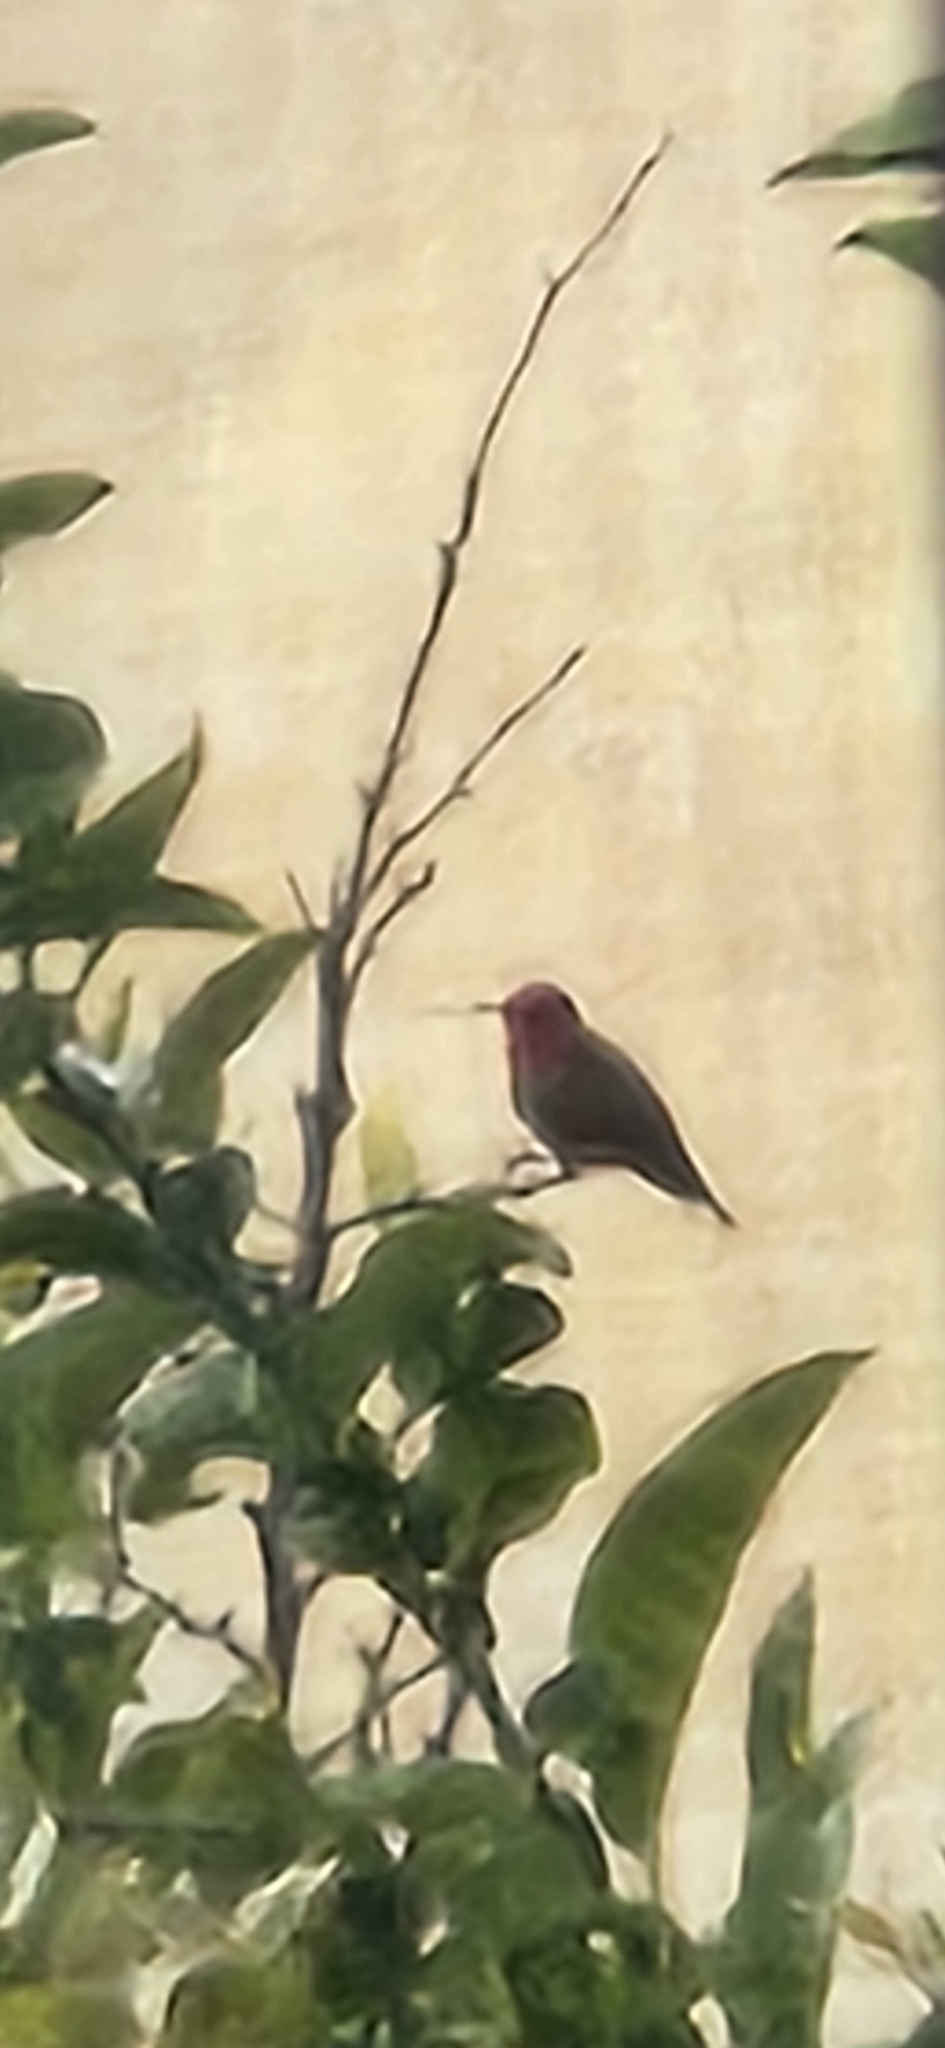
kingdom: Animalia
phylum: Chordata
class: Aves
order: Apodiformes
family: Trochilidae
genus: Calypte
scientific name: Calypte anna
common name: Anna's hummingbird
